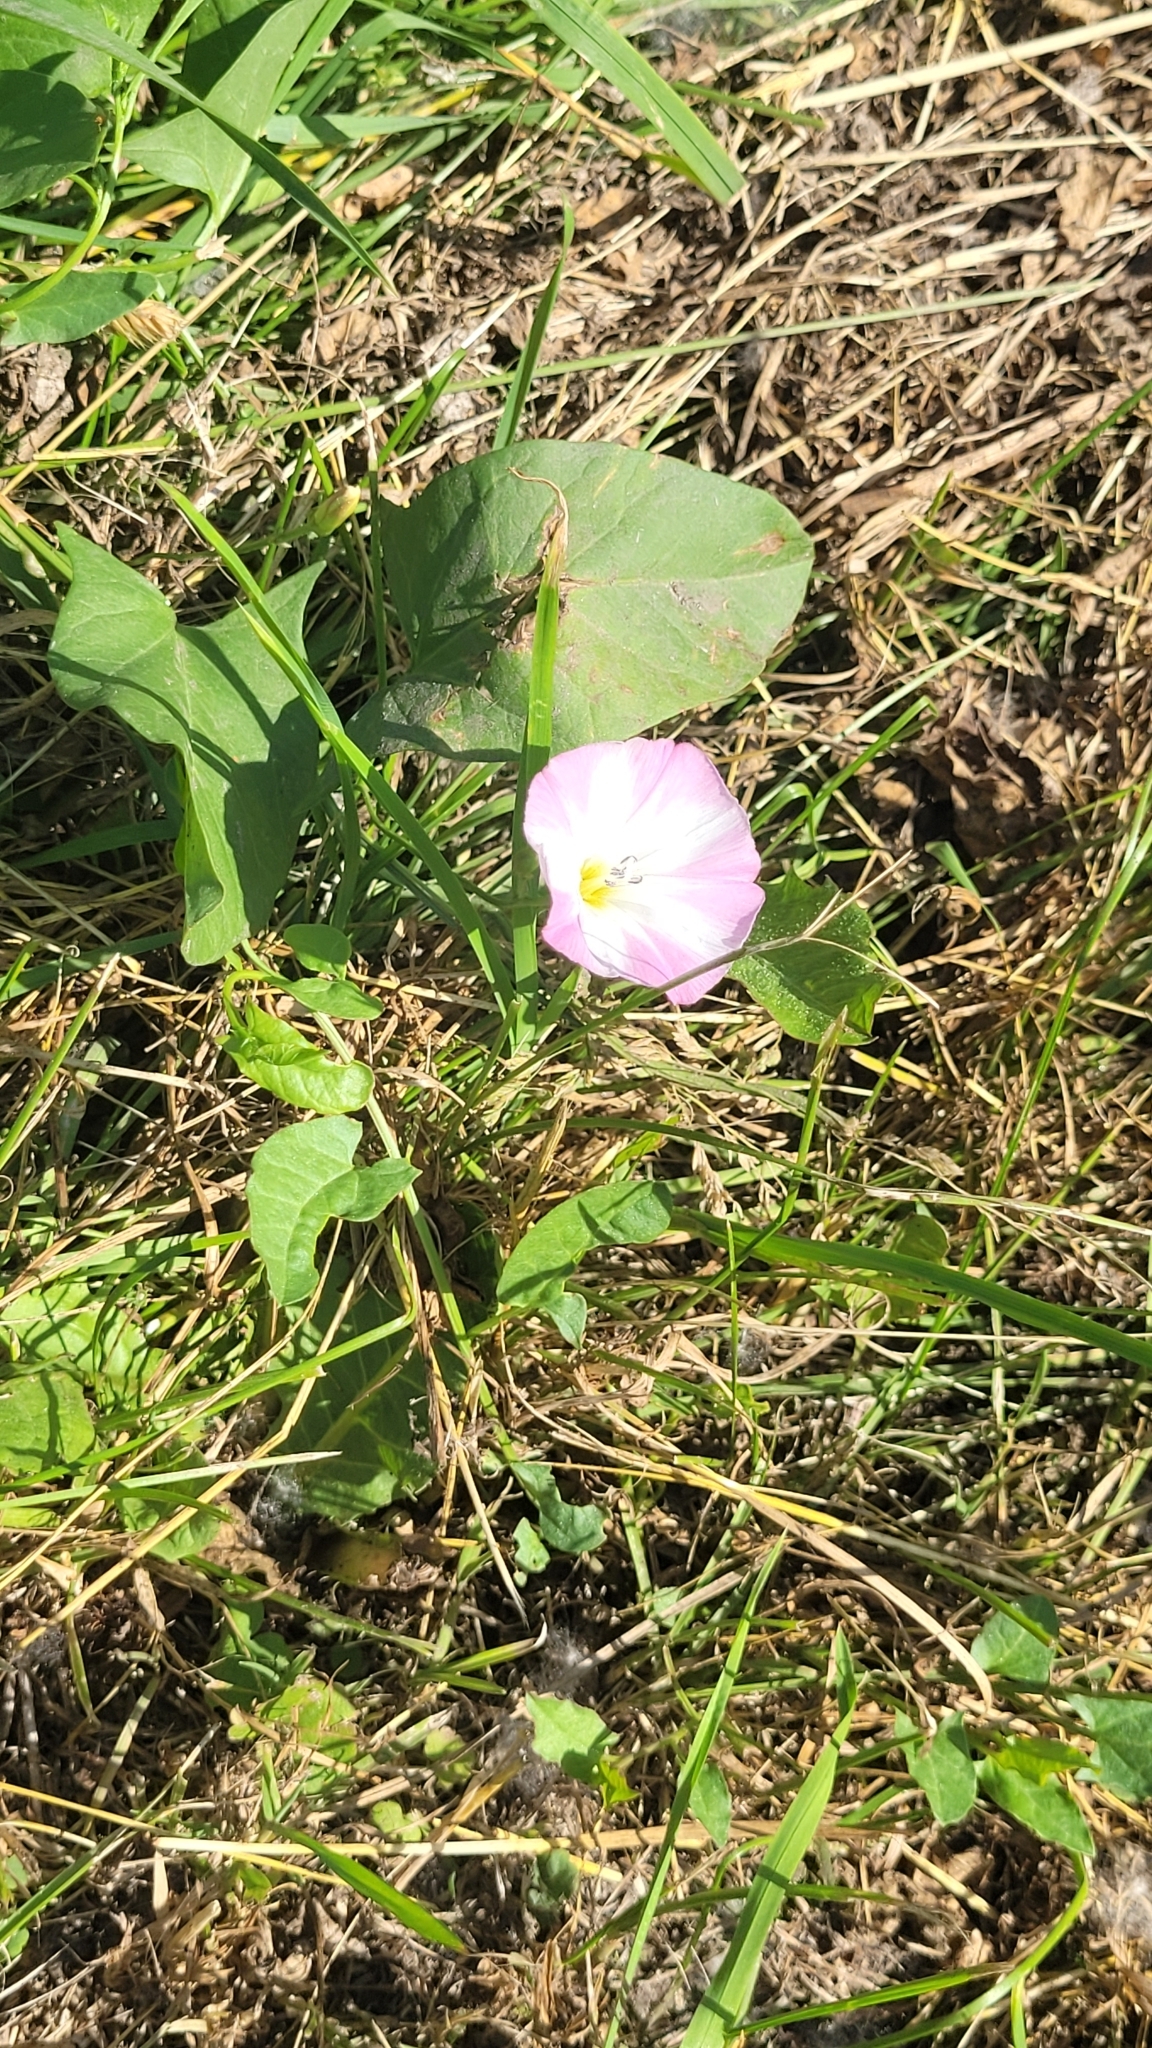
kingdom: Plantae
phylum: Tracheophyta
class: Magnoliopsida
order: Solanales
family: Convolvulaceae
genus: Convolvulus
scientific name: Convolvulus arvensis
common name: Field bindweed
